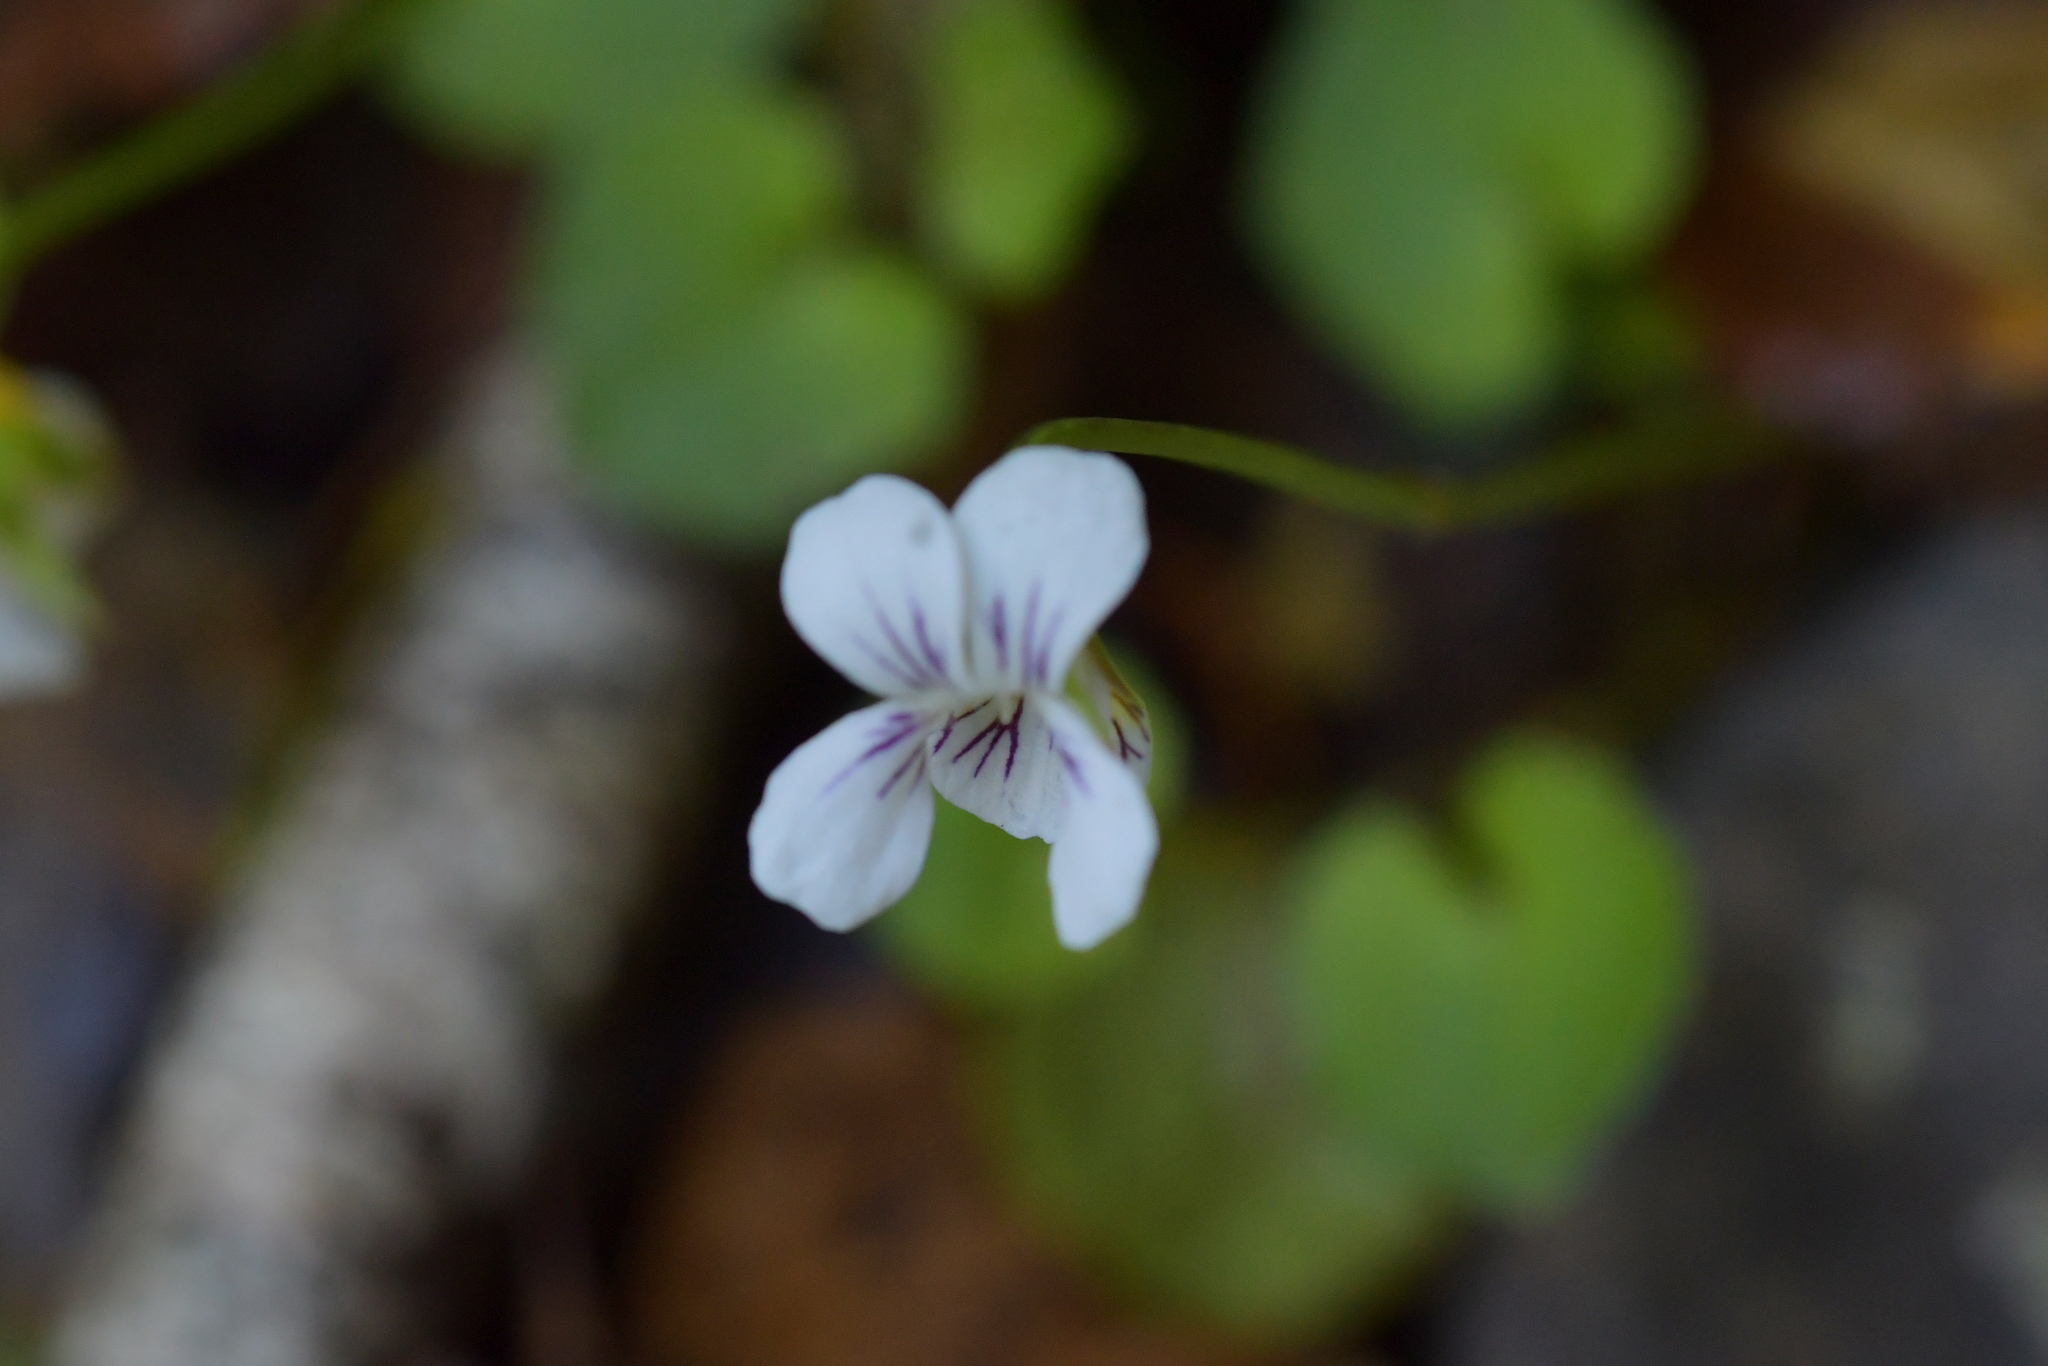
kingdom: Plantae
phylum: Tracheophyta
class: Magnoliopsida
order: Malpighiales
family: Violaceae
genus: Viola
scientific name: Viola filicaulis
